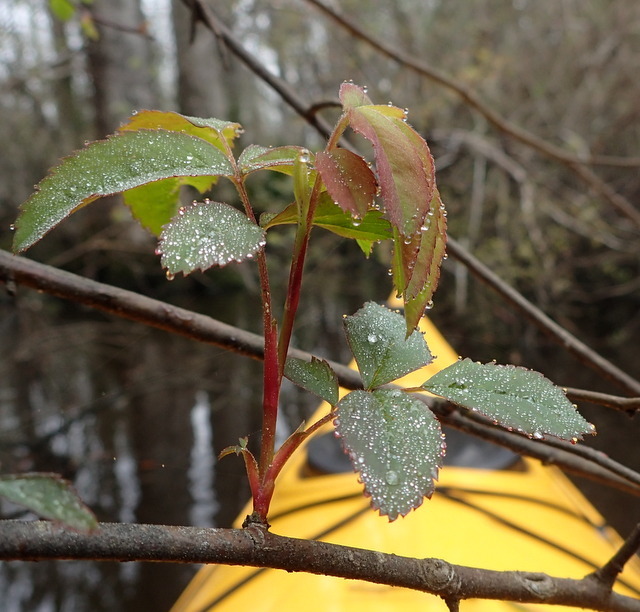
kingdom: Plantae
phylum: Tracheophyta
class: Magnoliopsida
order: Rosales
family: Rosaceae
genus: Rosa
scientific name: Rosa palustris
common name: Swamp rose
